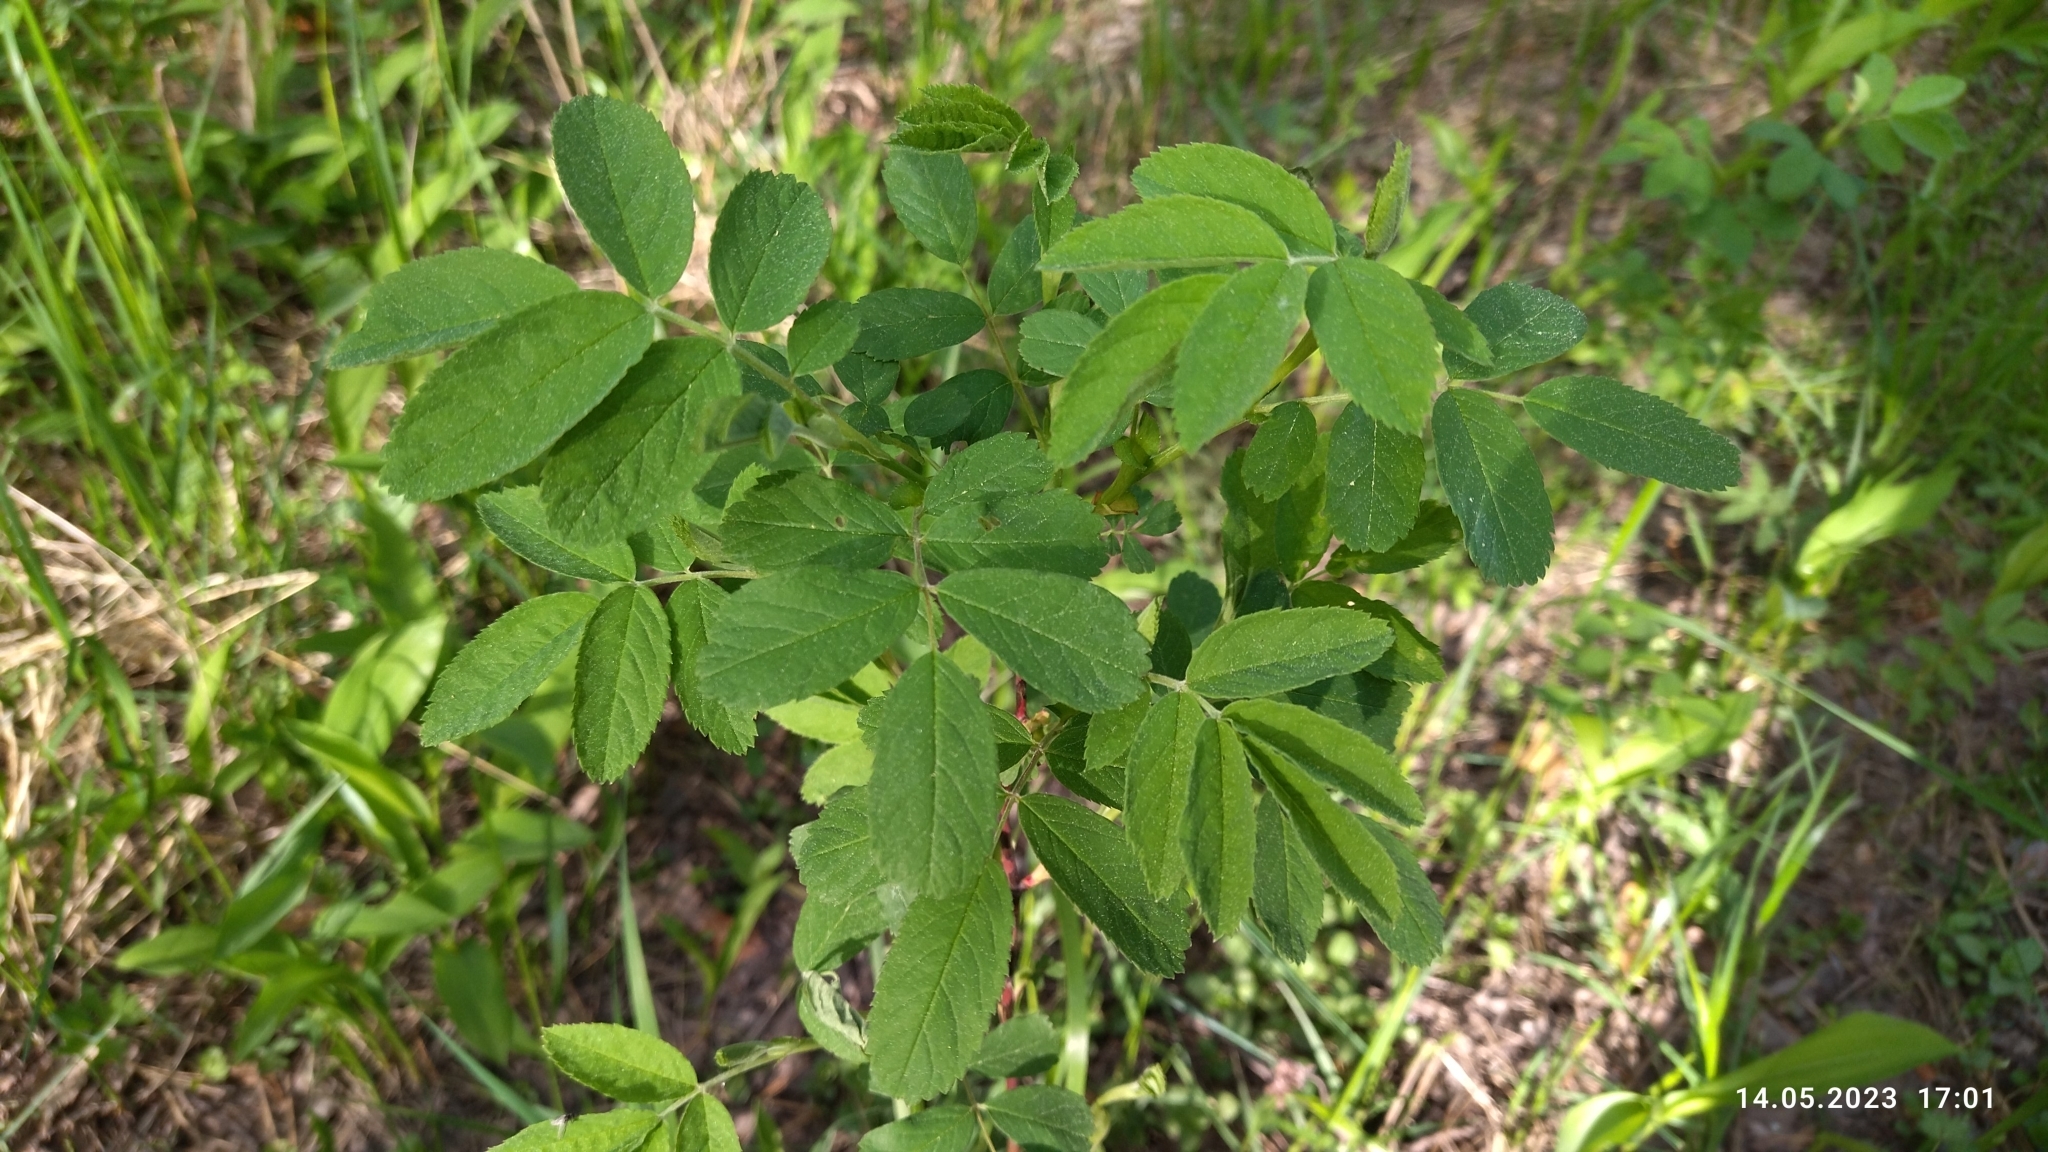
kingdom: Plantae
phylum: Tracheophyta
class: Magnoliopsida
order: Rosales
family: Rosaceae
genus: Rosa
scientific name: Rosa majalis
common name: Cinnamon rose
